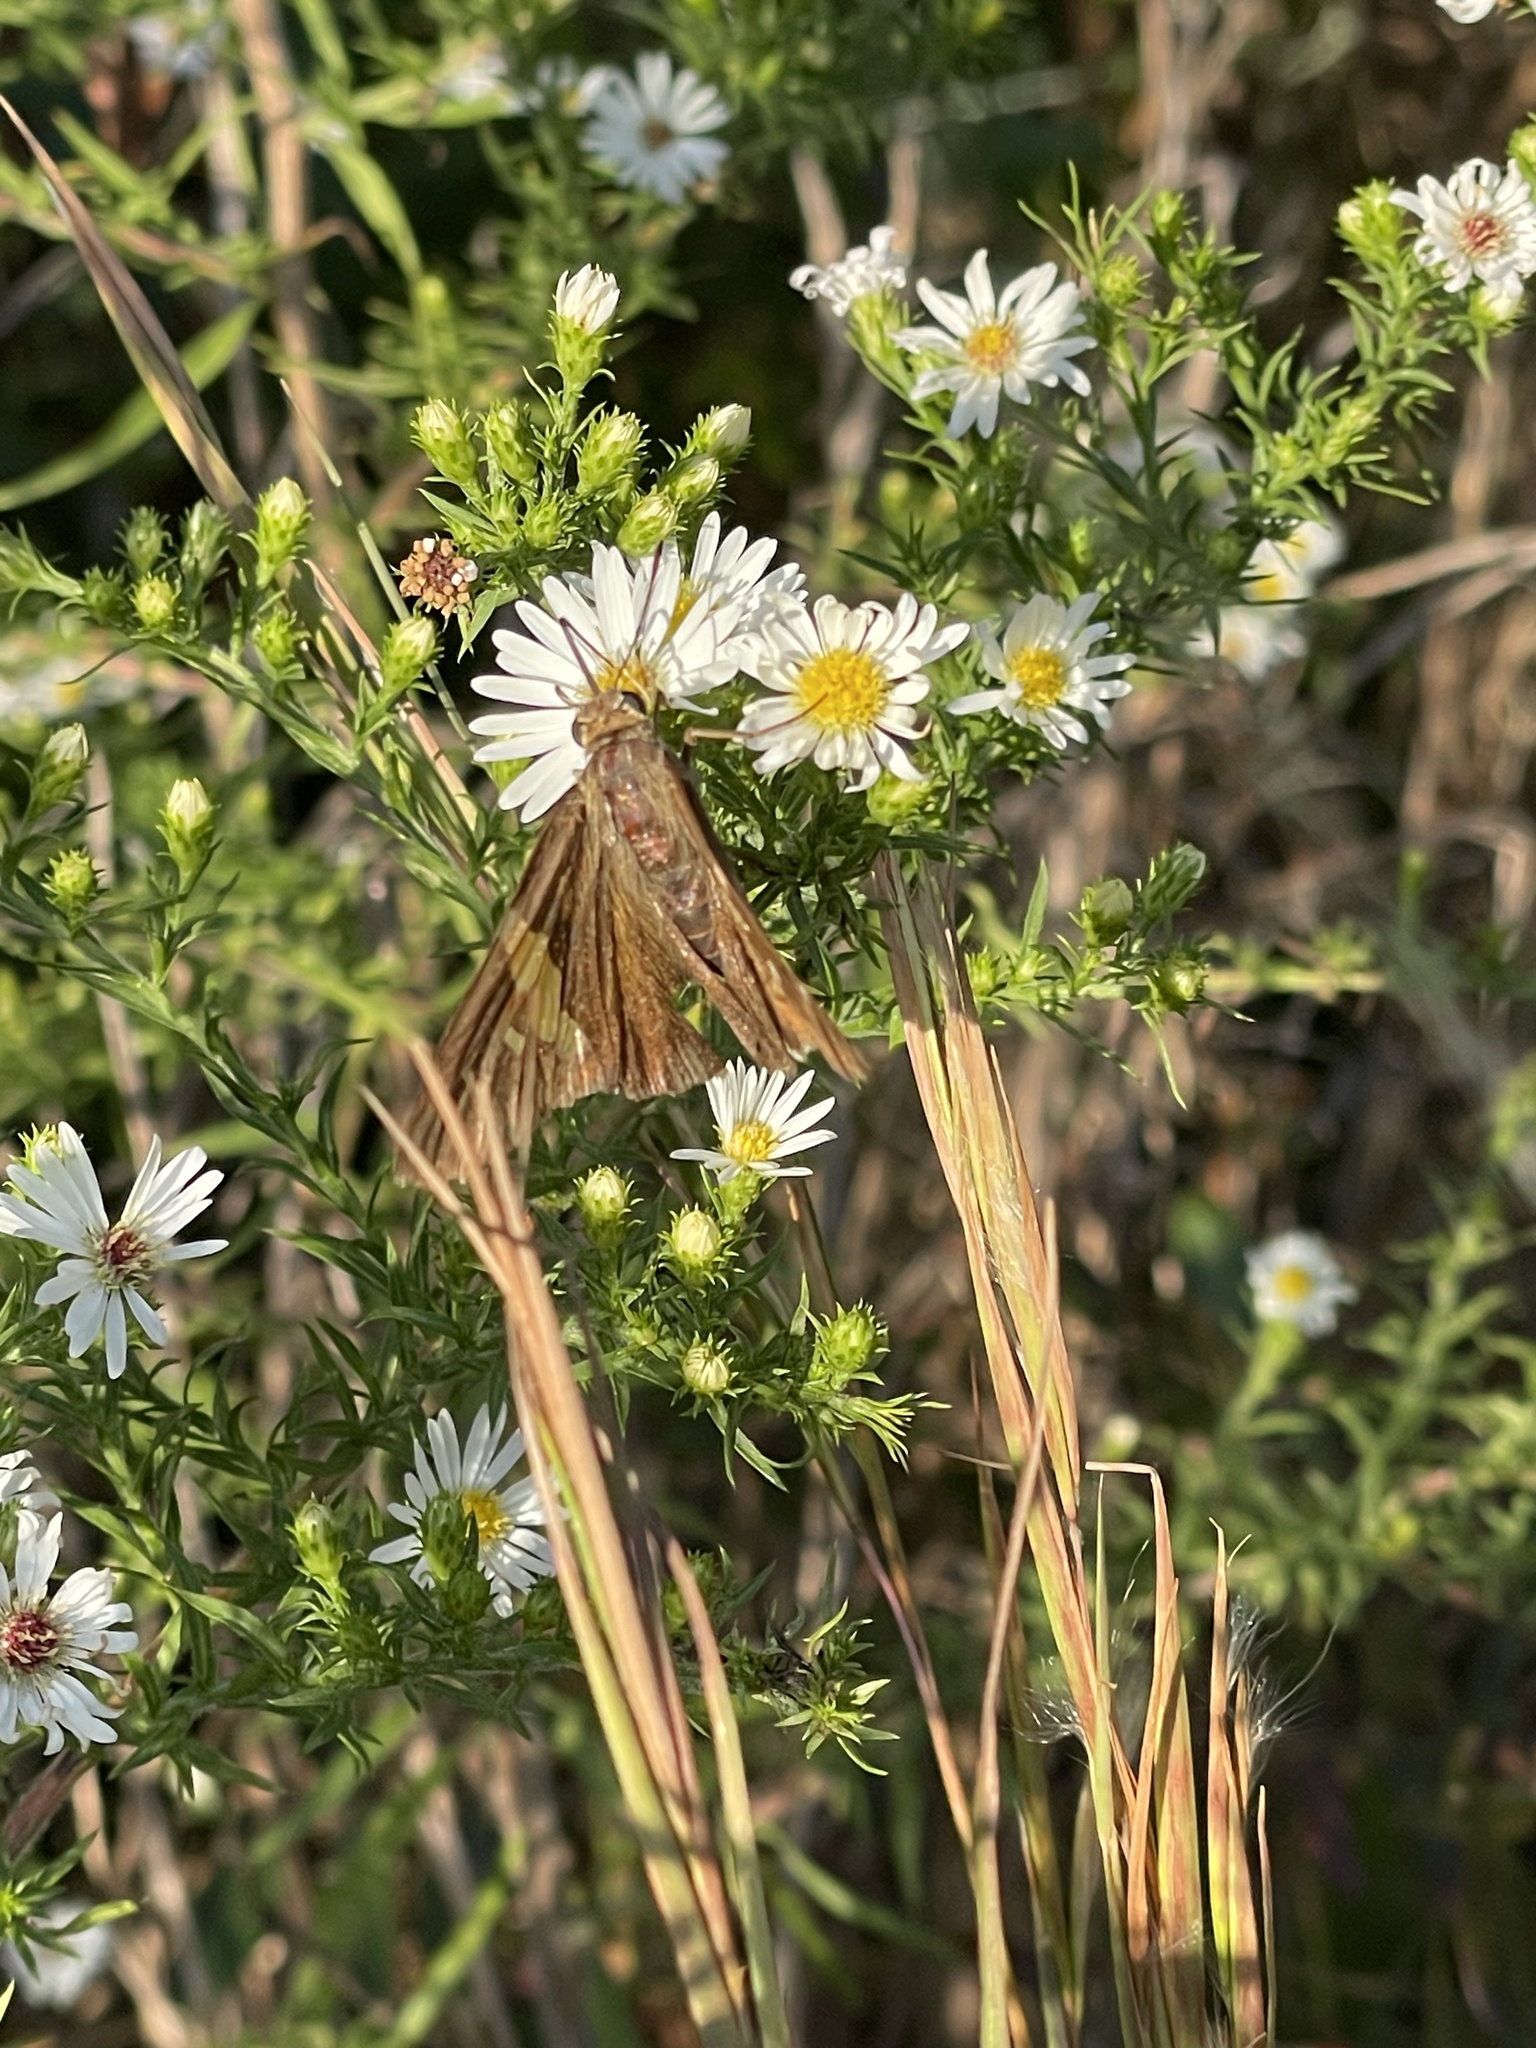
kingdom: Animalia
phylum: Arthropoda
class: Insecta
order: Lepidoptera
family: Hesperiidae
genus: Epargyreus
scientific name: Epargyreus clarus
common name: Silver-spotted skipper
